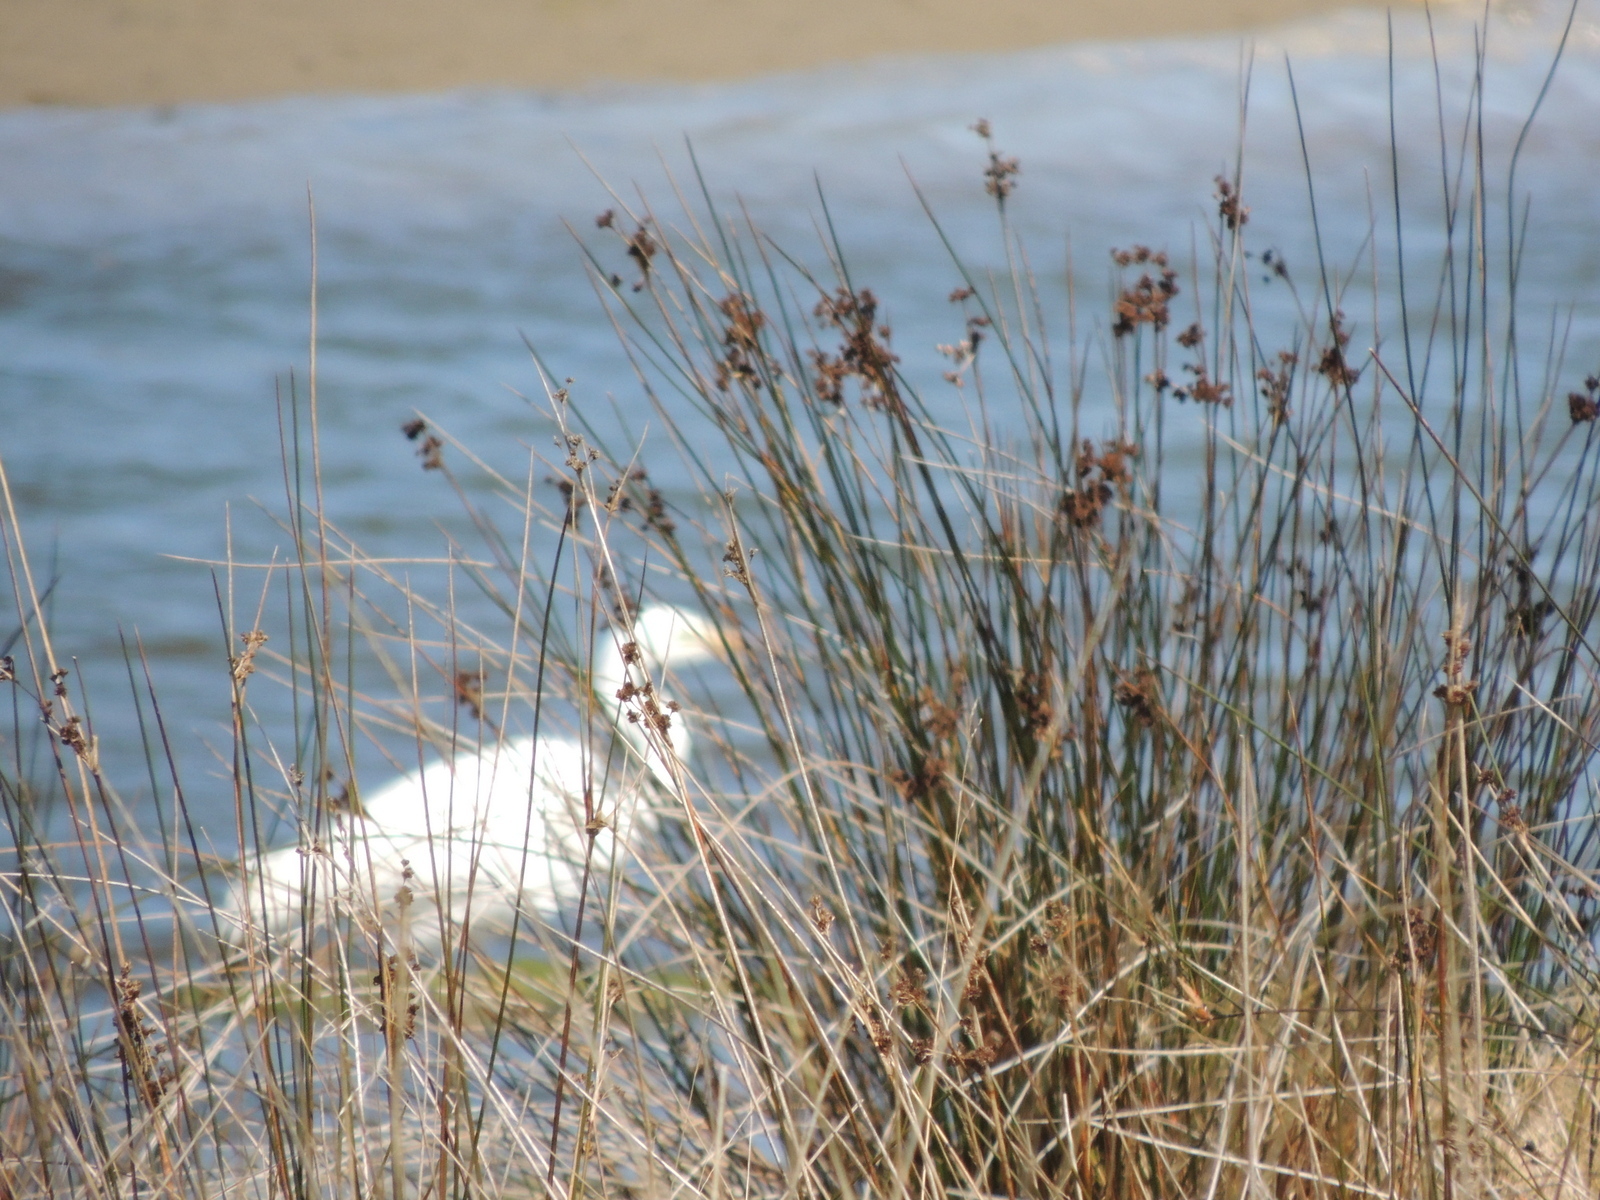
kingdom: Animalia
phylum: Chordata
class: Aves
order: Pelecaniformes
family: Ardeidae
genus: Ardea
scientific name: Ardea alba
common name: Great egret
